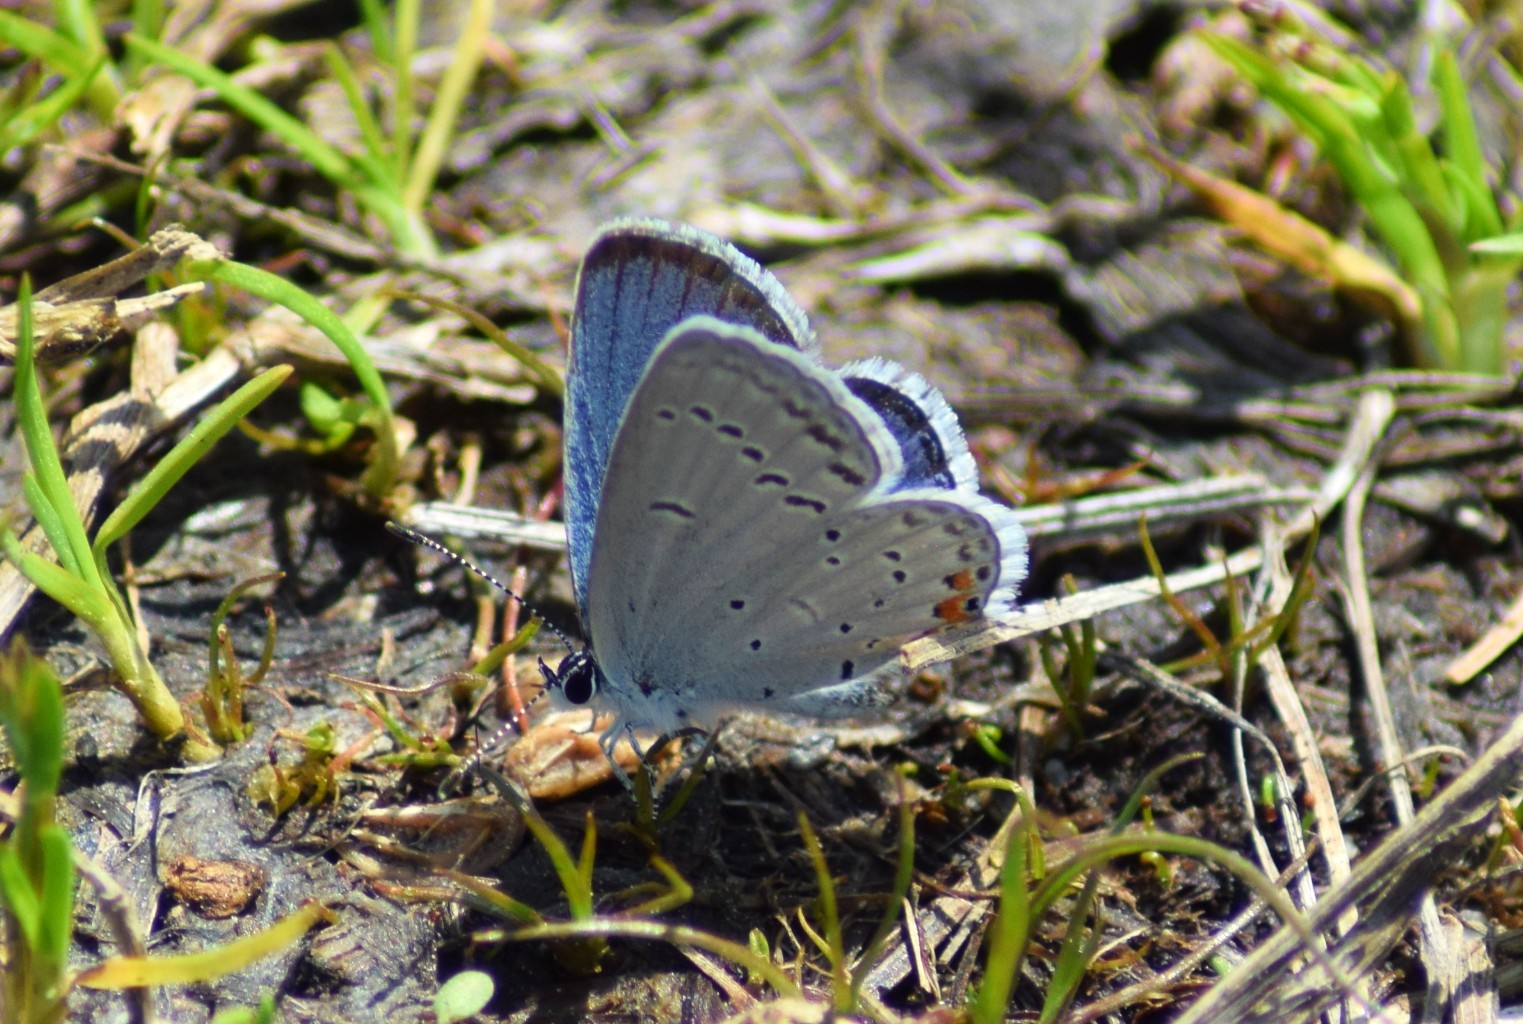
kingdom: Animalia
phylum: Arthropoda
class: Insecta
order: Lepidoptera
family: Lycaenidae
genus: Elkalyce
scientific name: Elkalyce comyntas
